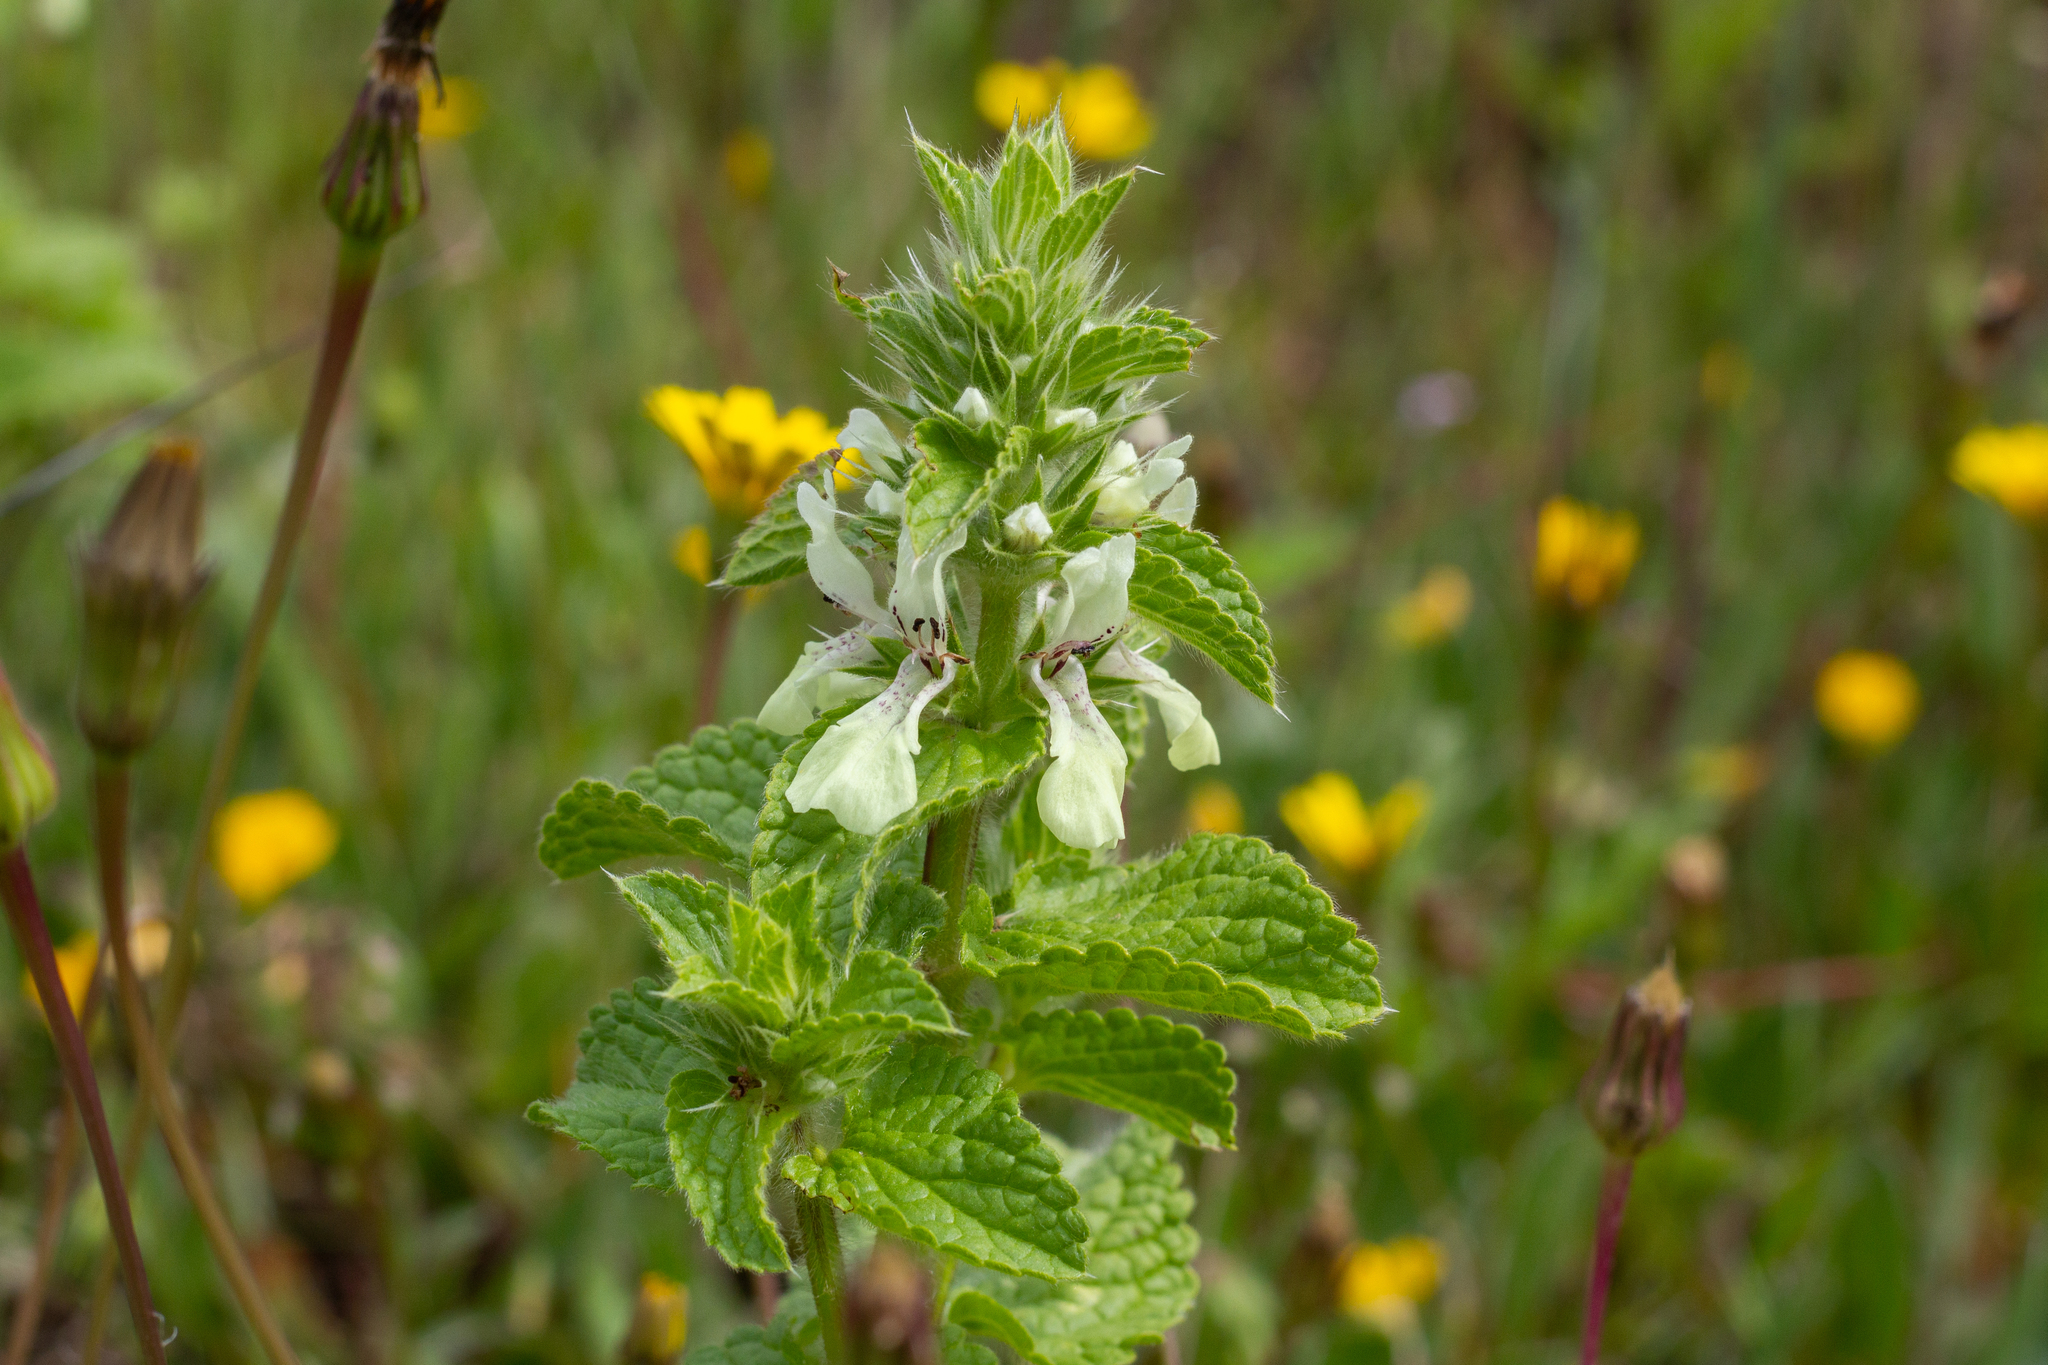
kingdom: Plantae
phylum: Tracheophyta
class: Magnoliopsida
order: Lamiales
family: Lamiaceae
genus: Stachys
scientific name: Stachys ocymastrum
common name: Italian hedgenettle
